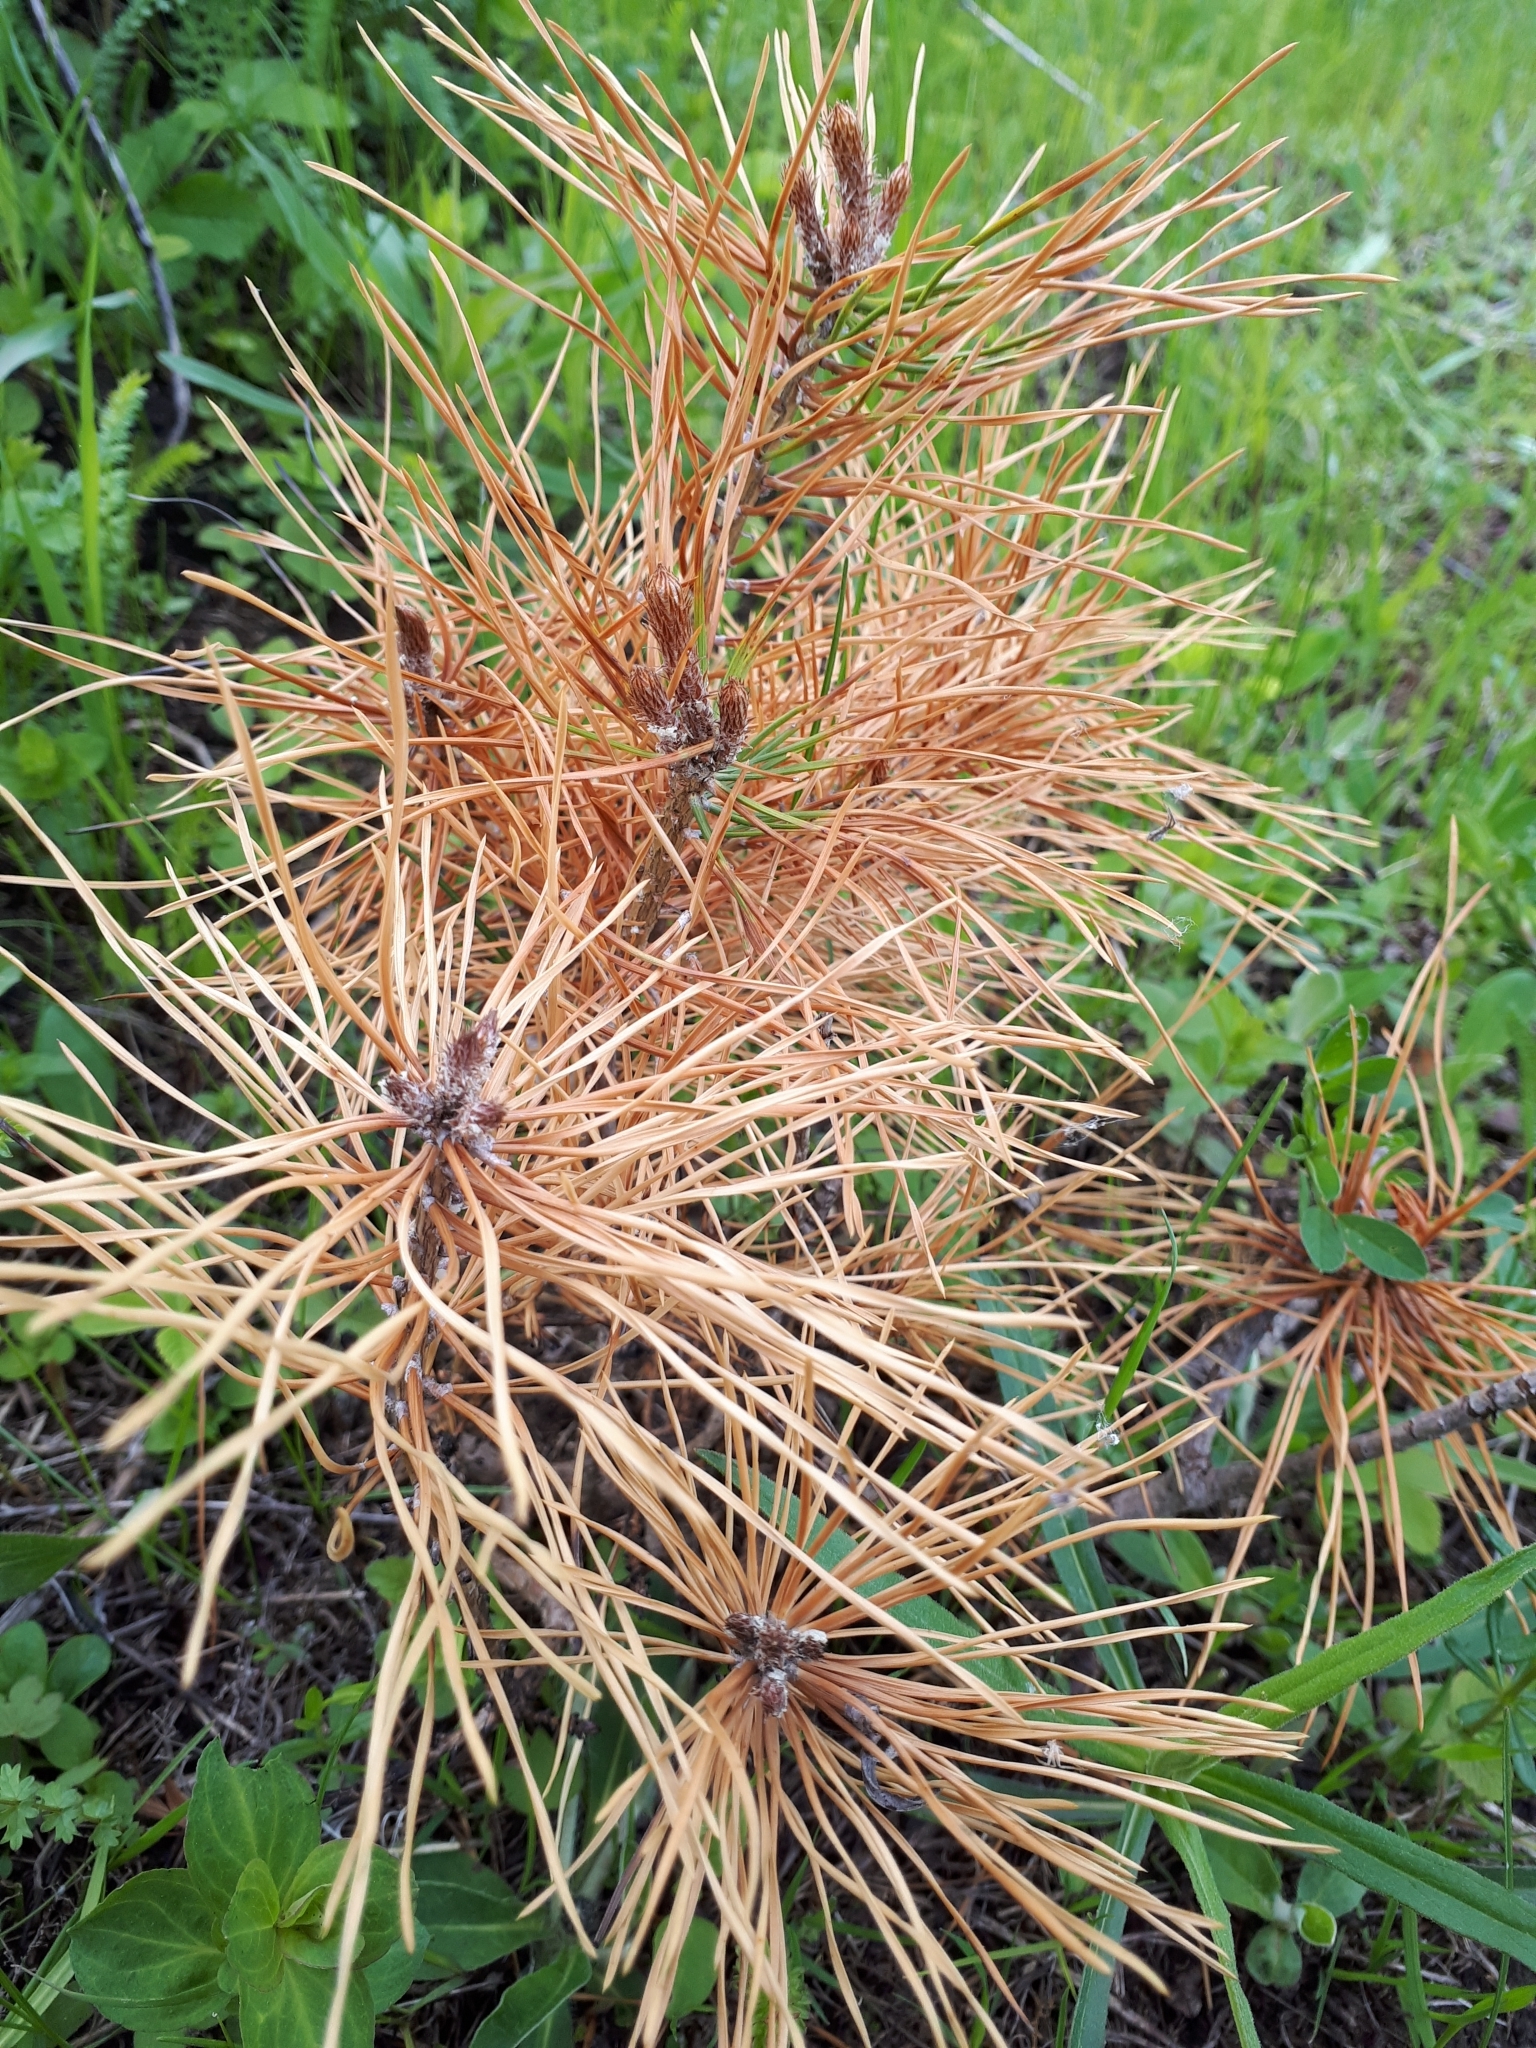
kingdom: Plantae
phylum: Tracheophyta
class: Pinopsida
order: Pinales
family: Pinaceae
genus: Pinus
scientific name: Pinus sylvestris
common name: Scots pine
